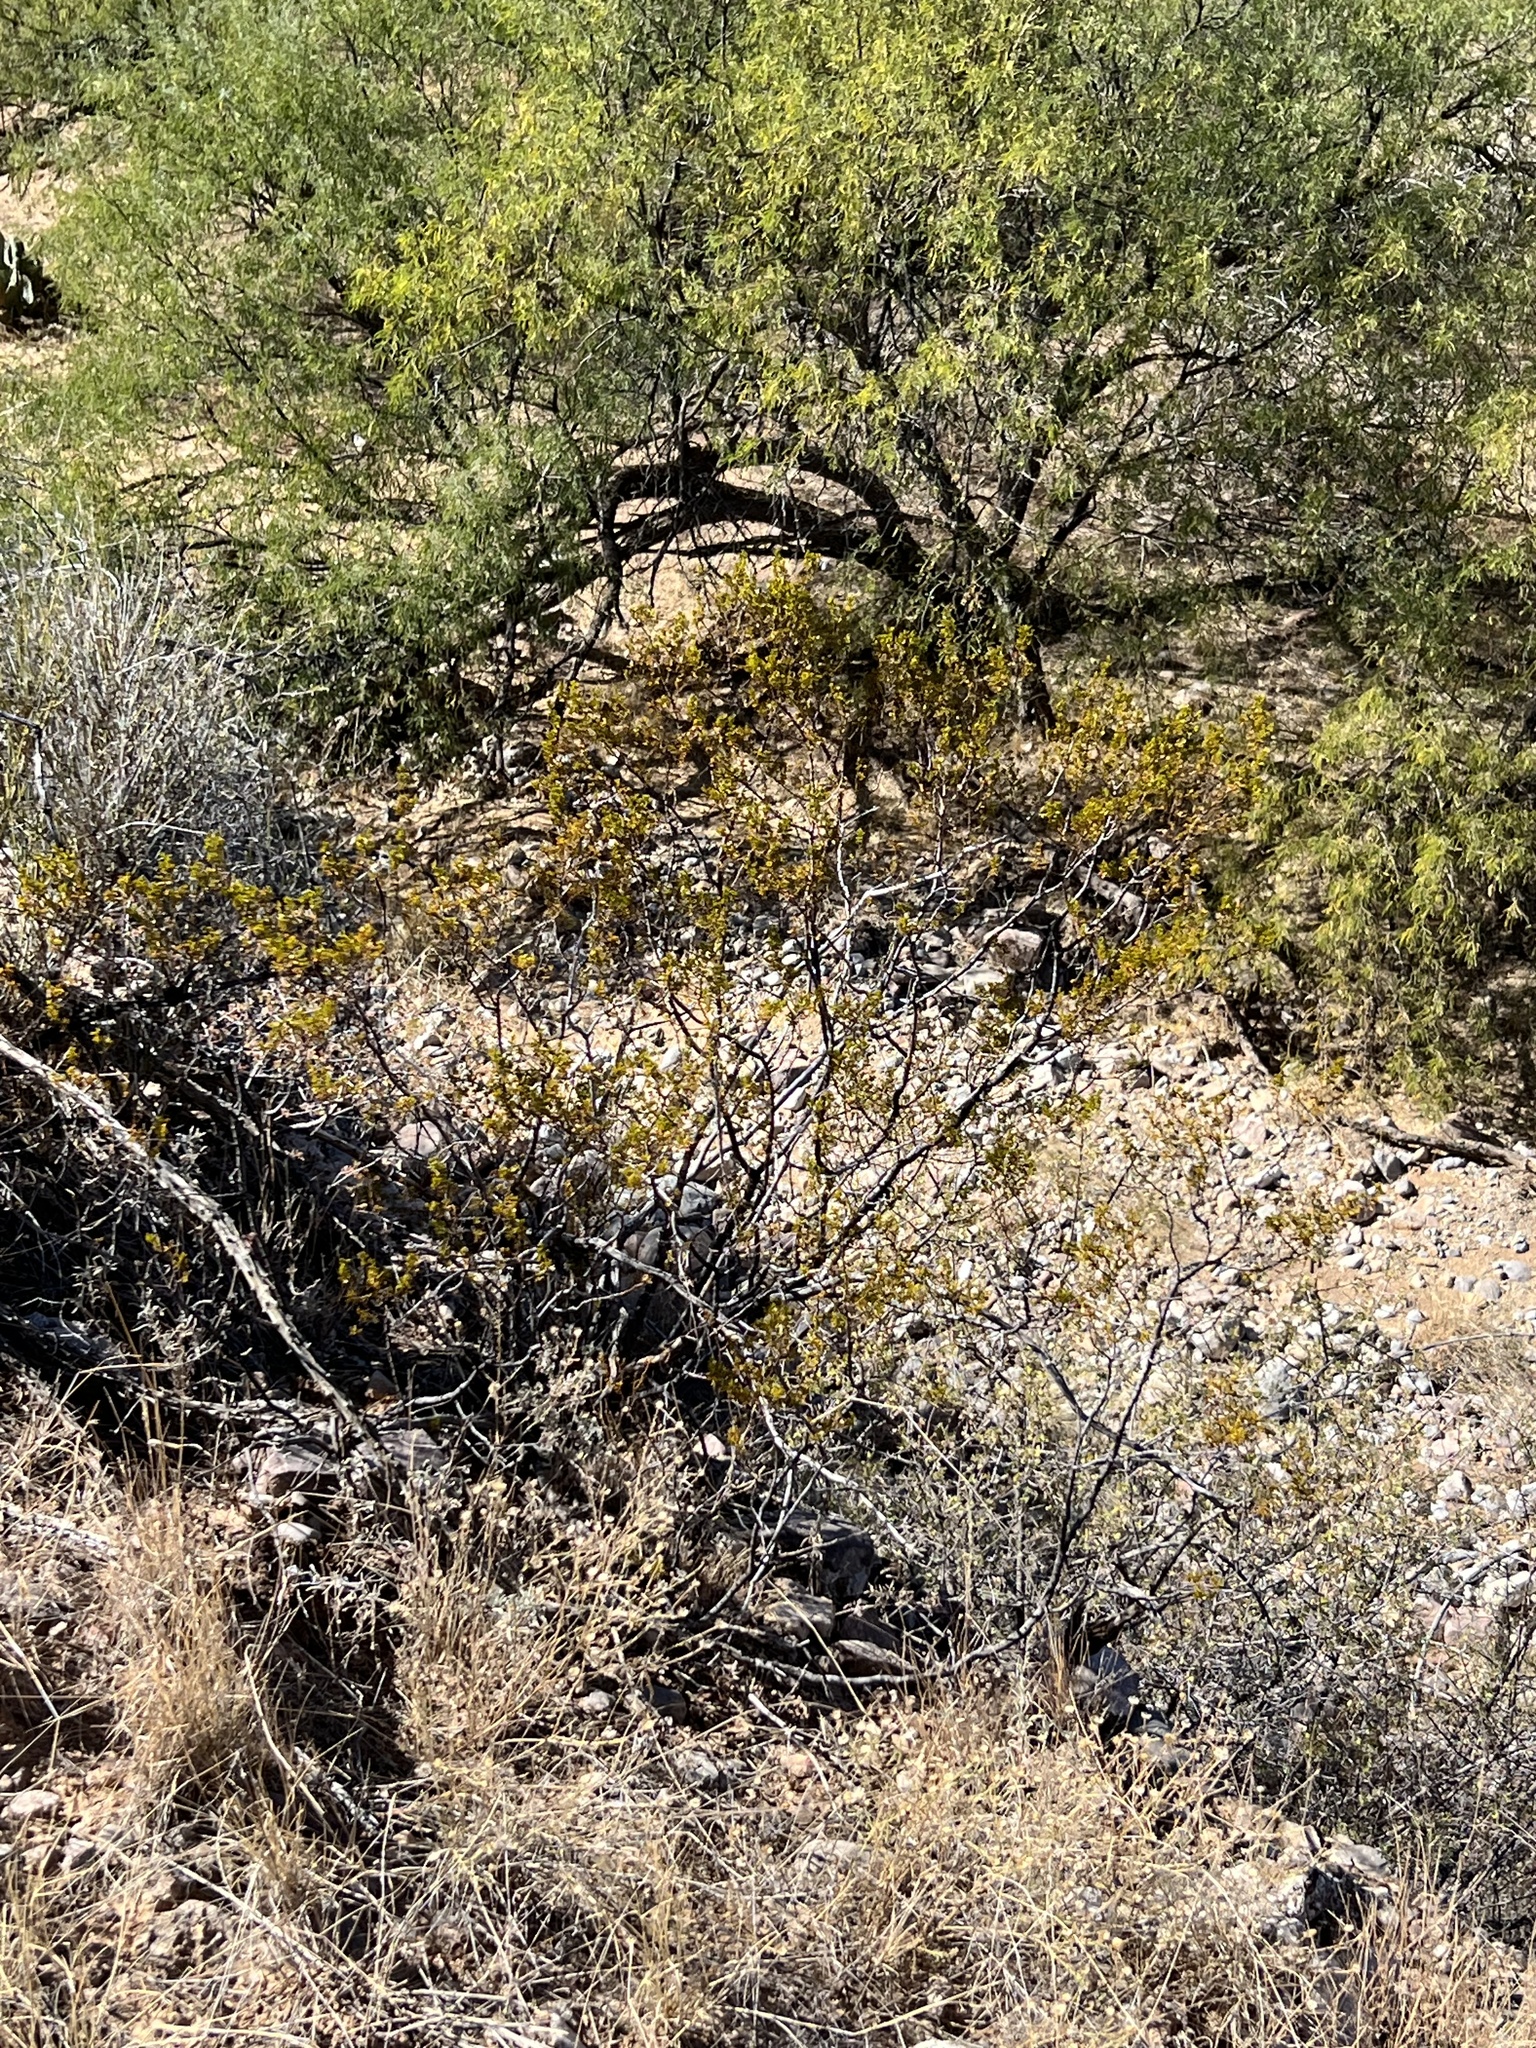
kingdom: Plantae
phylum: Tracheophyta
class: Magnoliopsida
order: Zygophyllales
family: Zygophyllaceae
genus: Larrea
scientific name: Larrea tridentata
